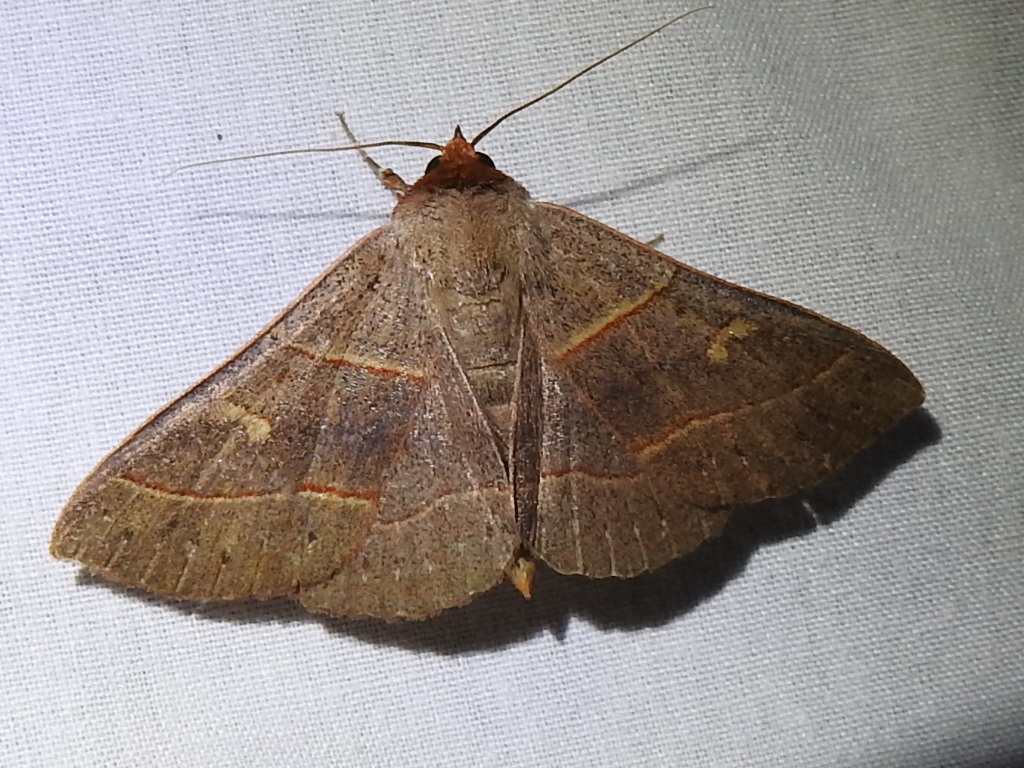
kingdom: Animalia
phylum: Arthropoda
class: Insecta
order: Lepidoptera
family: Erebidae
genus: Panopoda
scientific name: Panopoda rufimargo
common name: Red-lined panopoda moth
